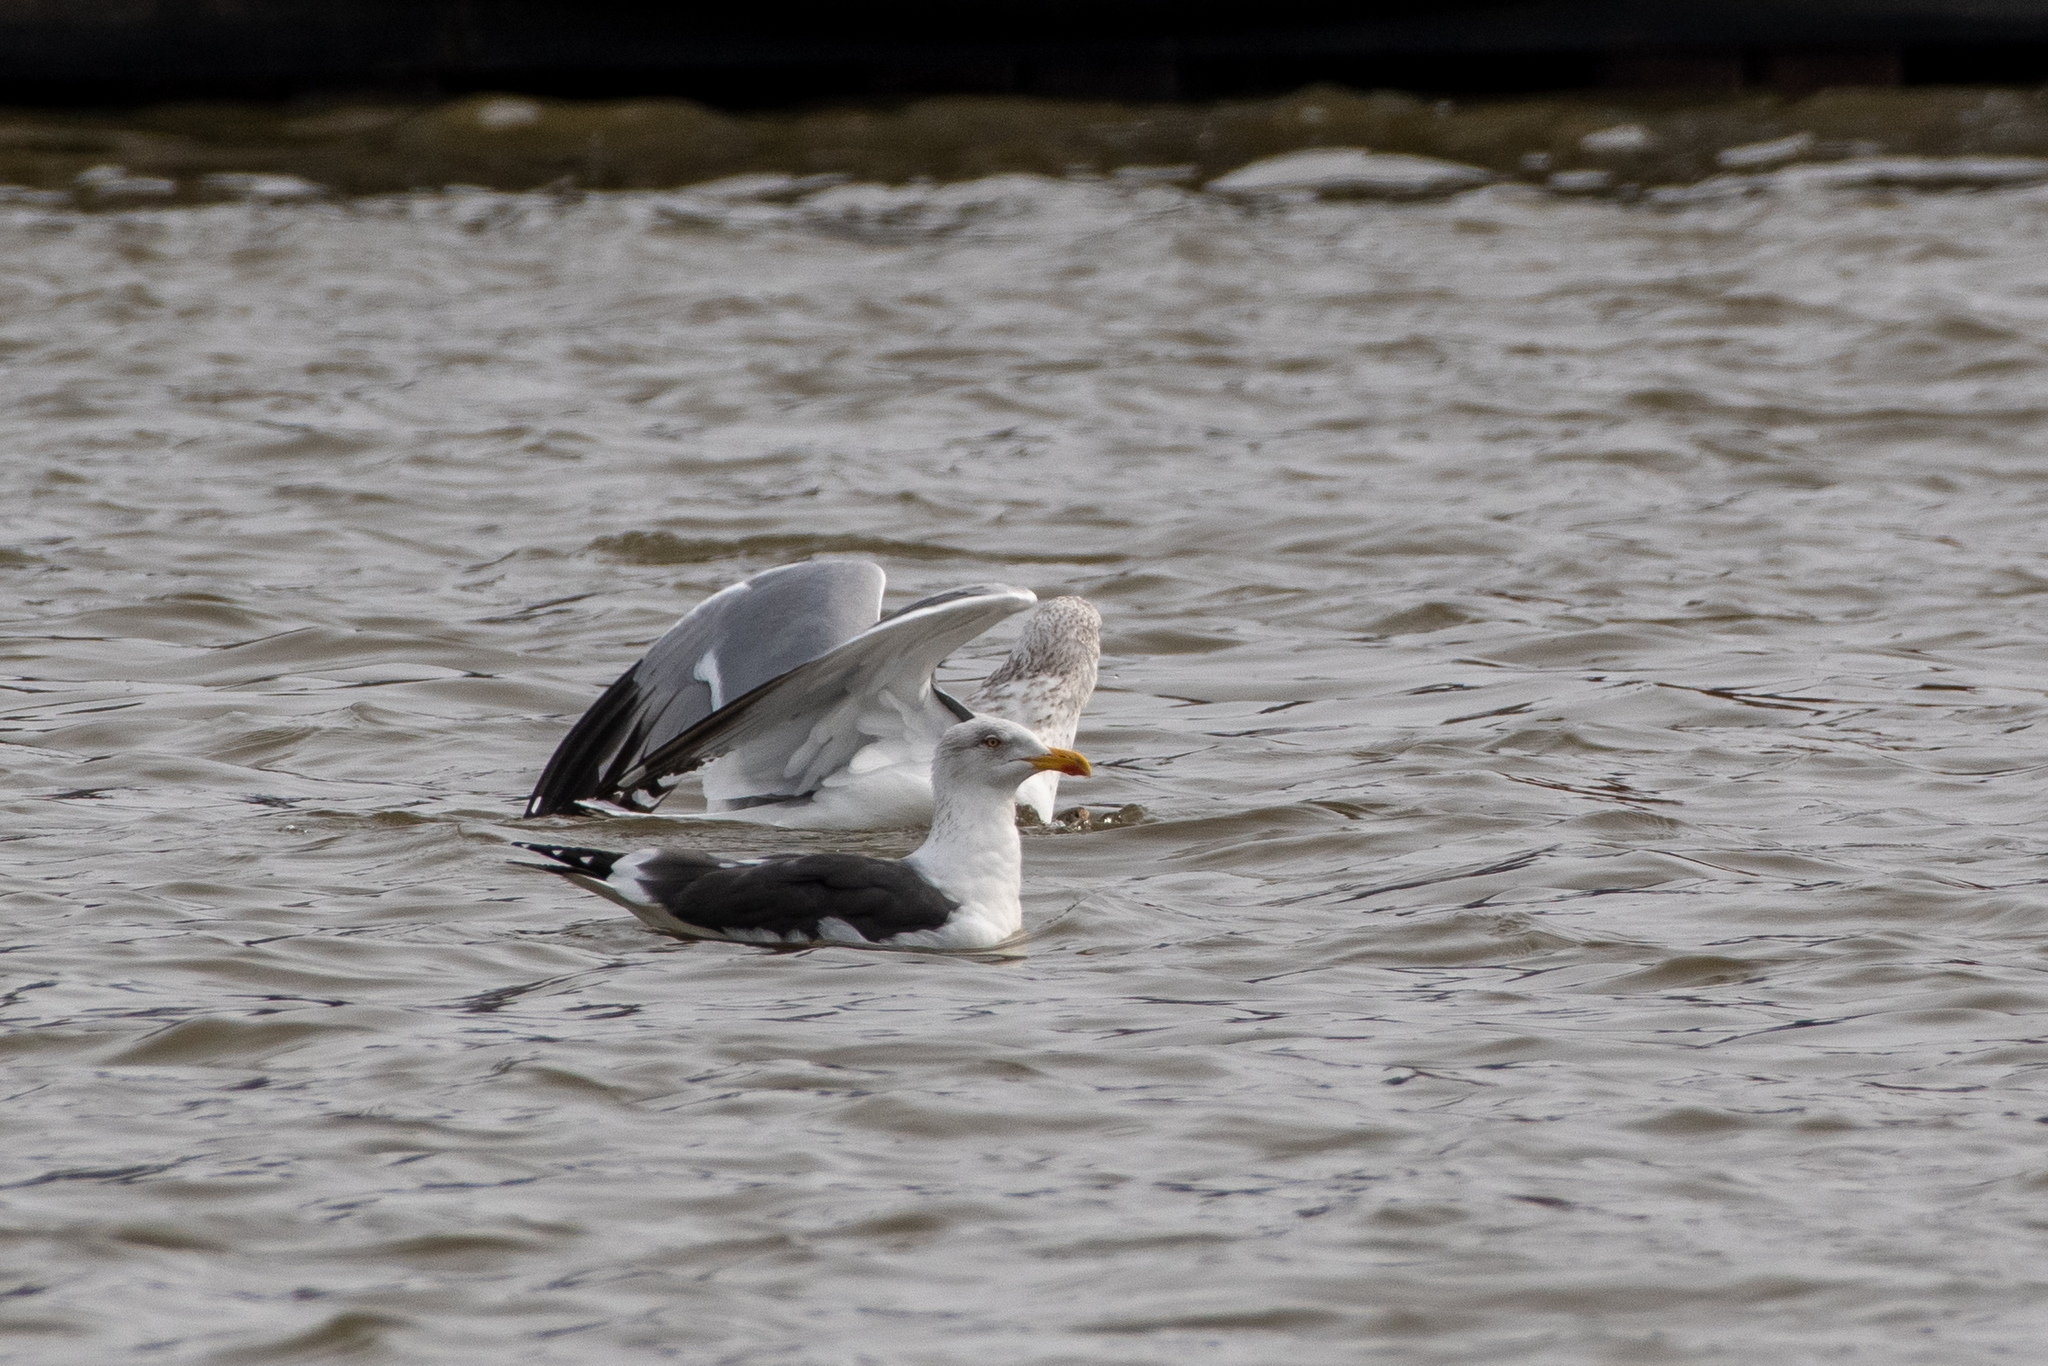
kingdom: Animalia
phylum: Chordata
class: Aves
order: Charadriiformes
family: Laridae
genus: Larus
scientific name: Larus fuscus
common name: Lesser black-backed gull
